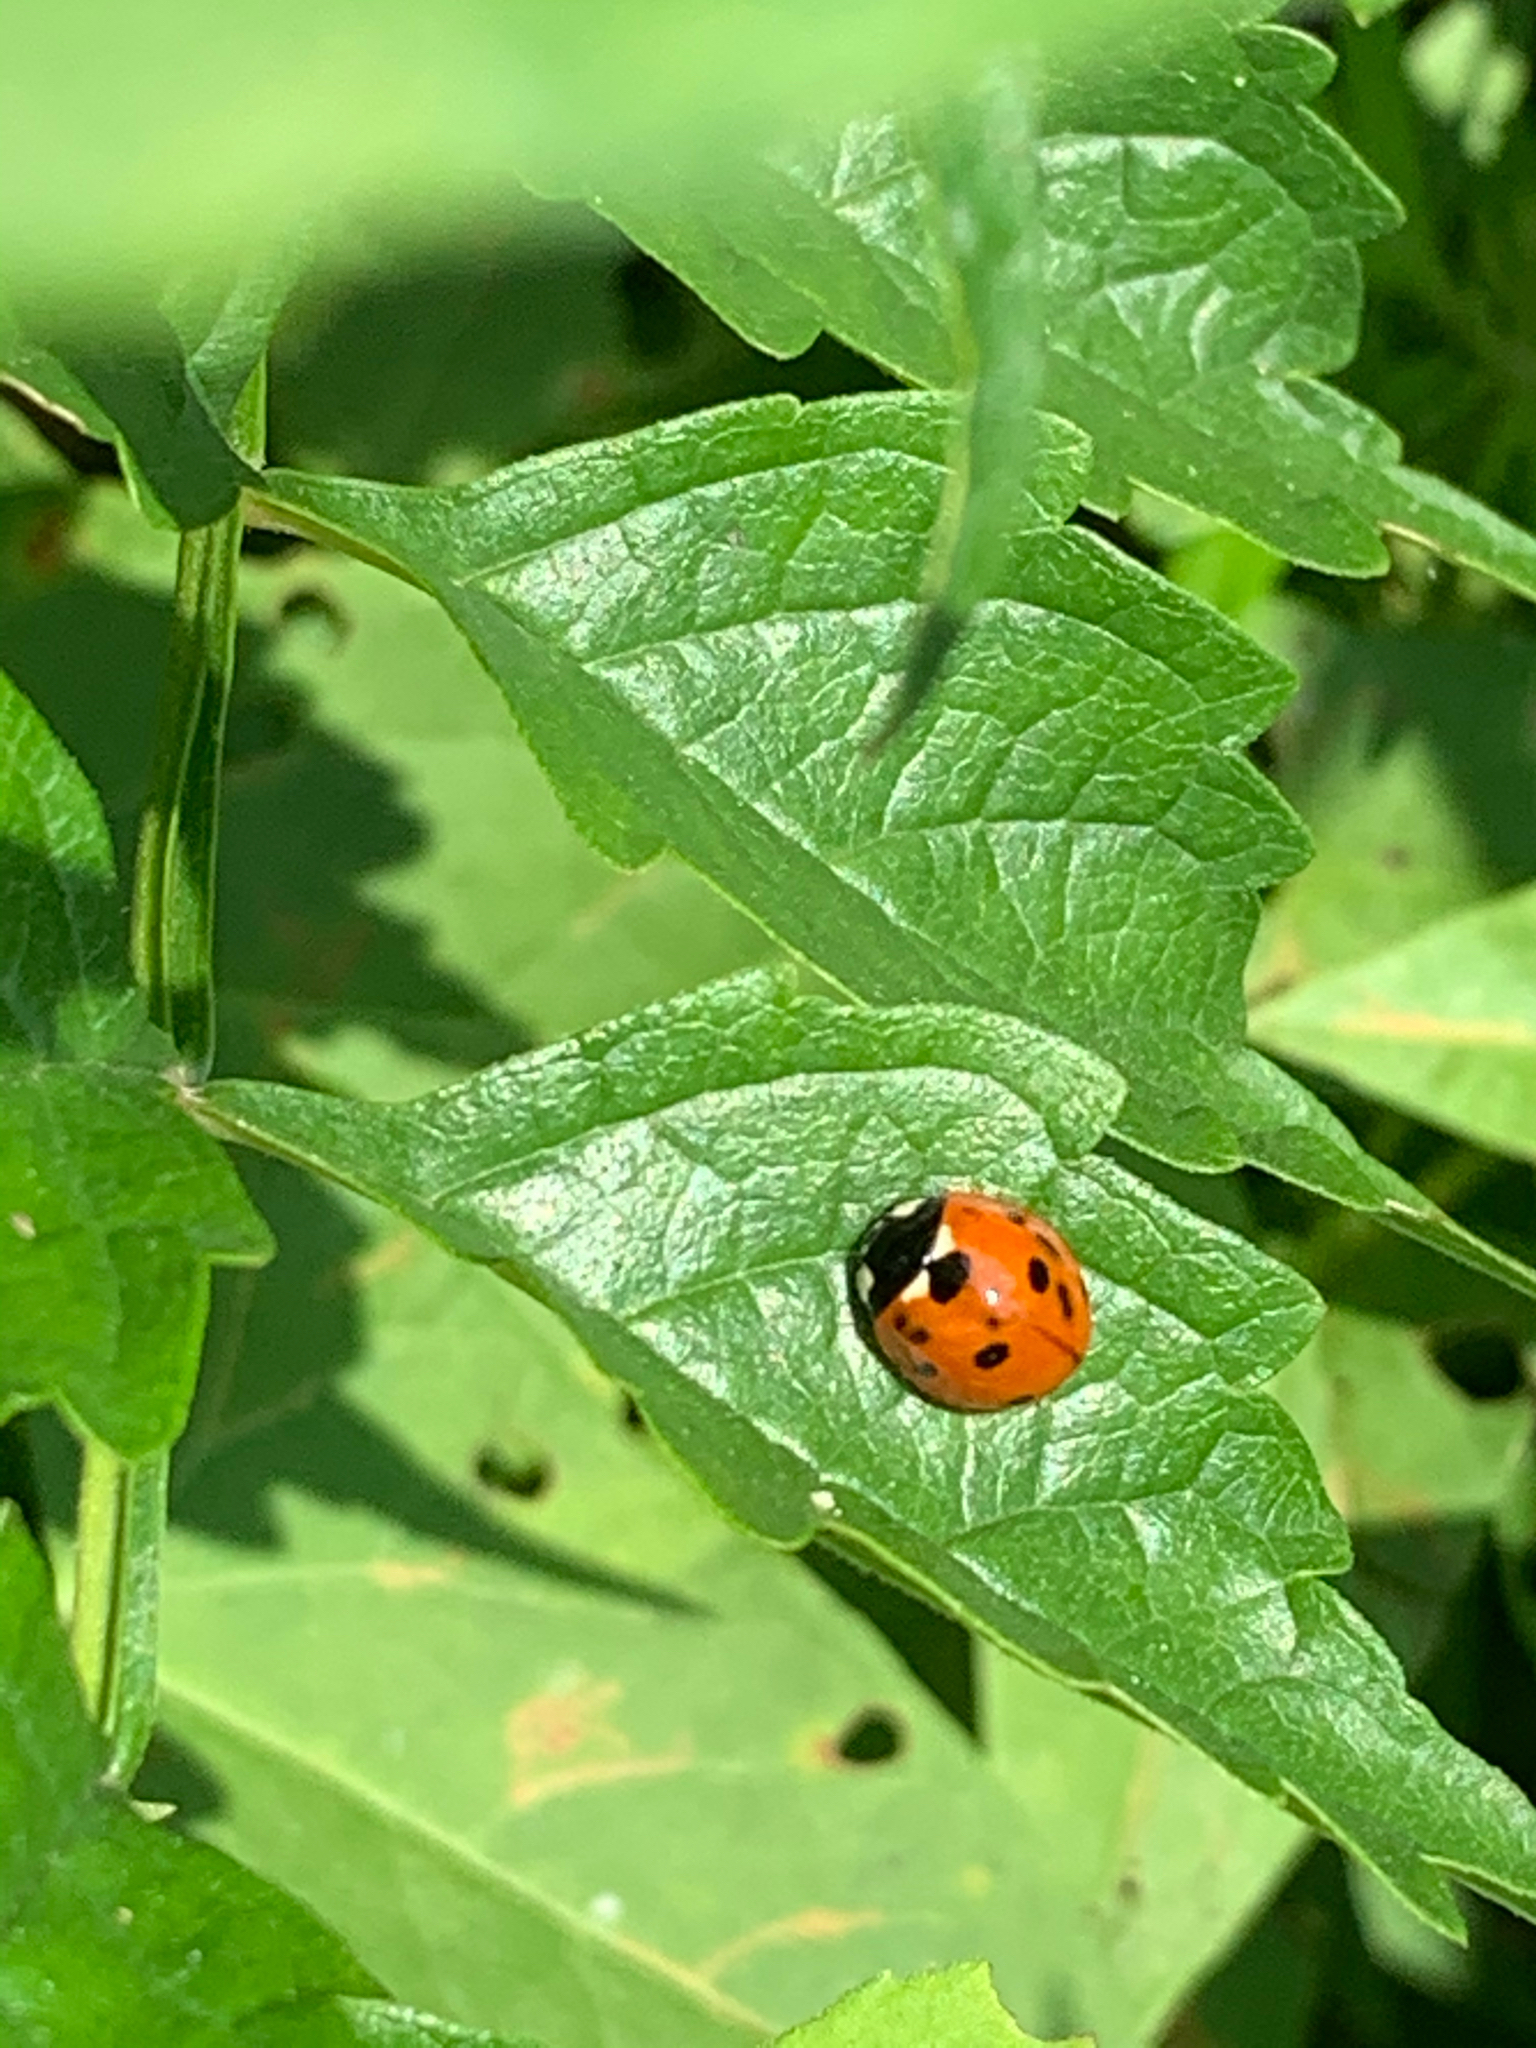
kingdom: Animalia
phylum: Arthropoda
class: Insecta
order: Coleoptera
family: Coccinellidae
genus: Coccinella
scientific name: Coccinella septempunctata
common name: Sevenspotted lady beetle
